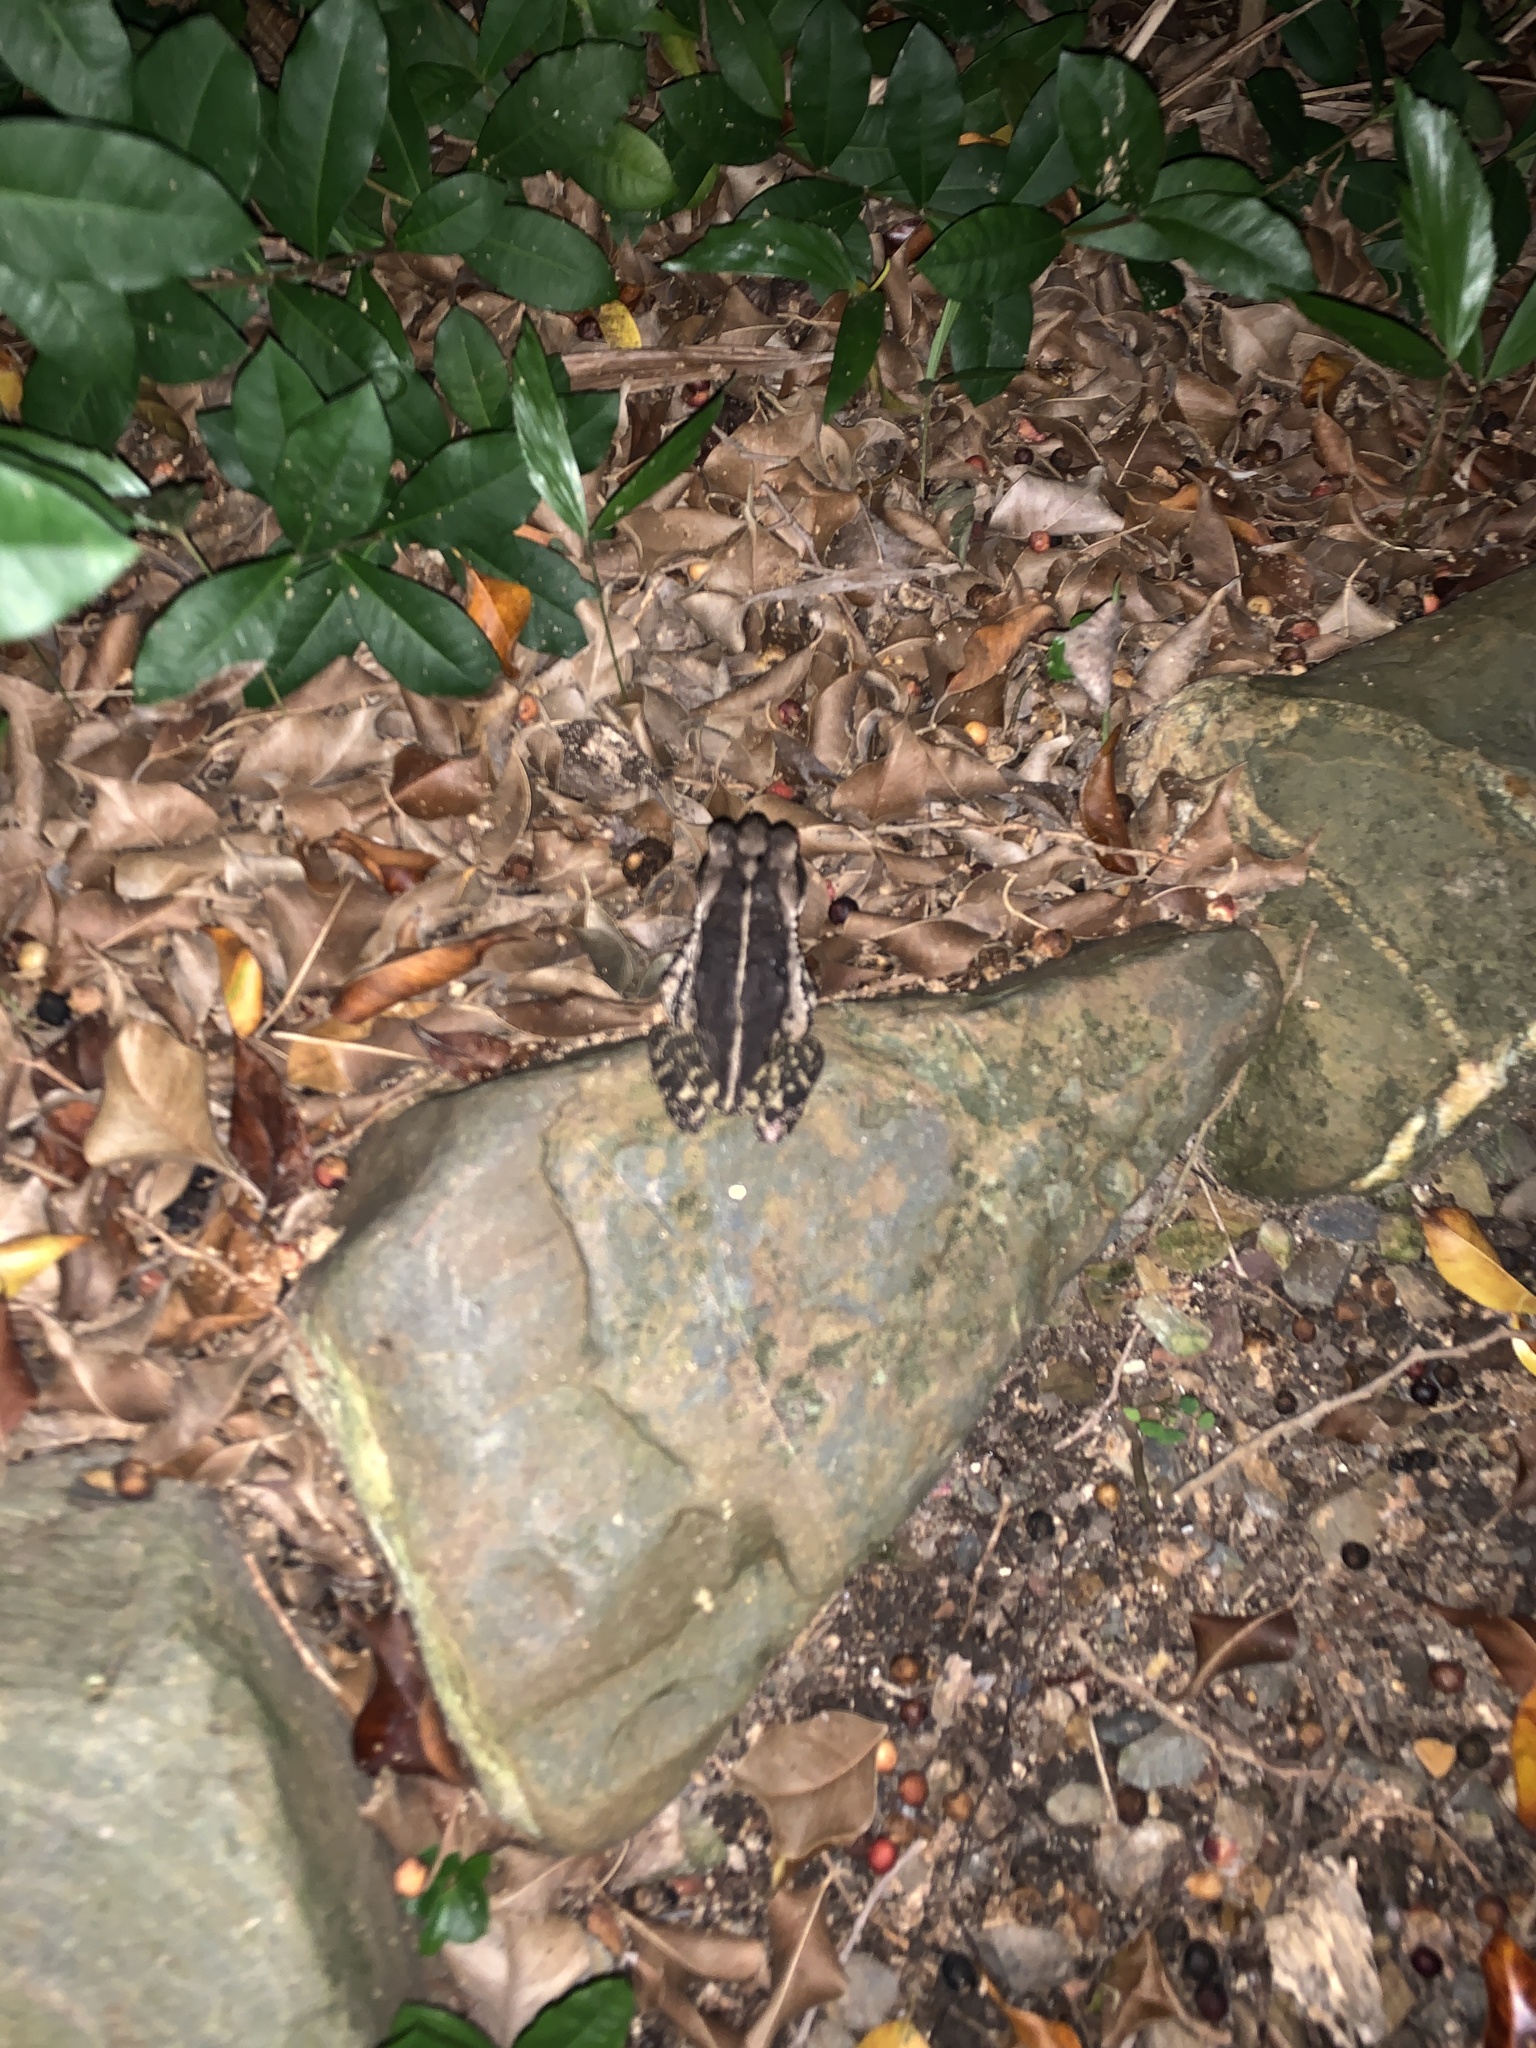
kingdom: Animalia
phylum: Chordata
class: Amphibia
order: Anura
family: Bufonidae
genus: Incilius
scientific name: Incilius valliceps
